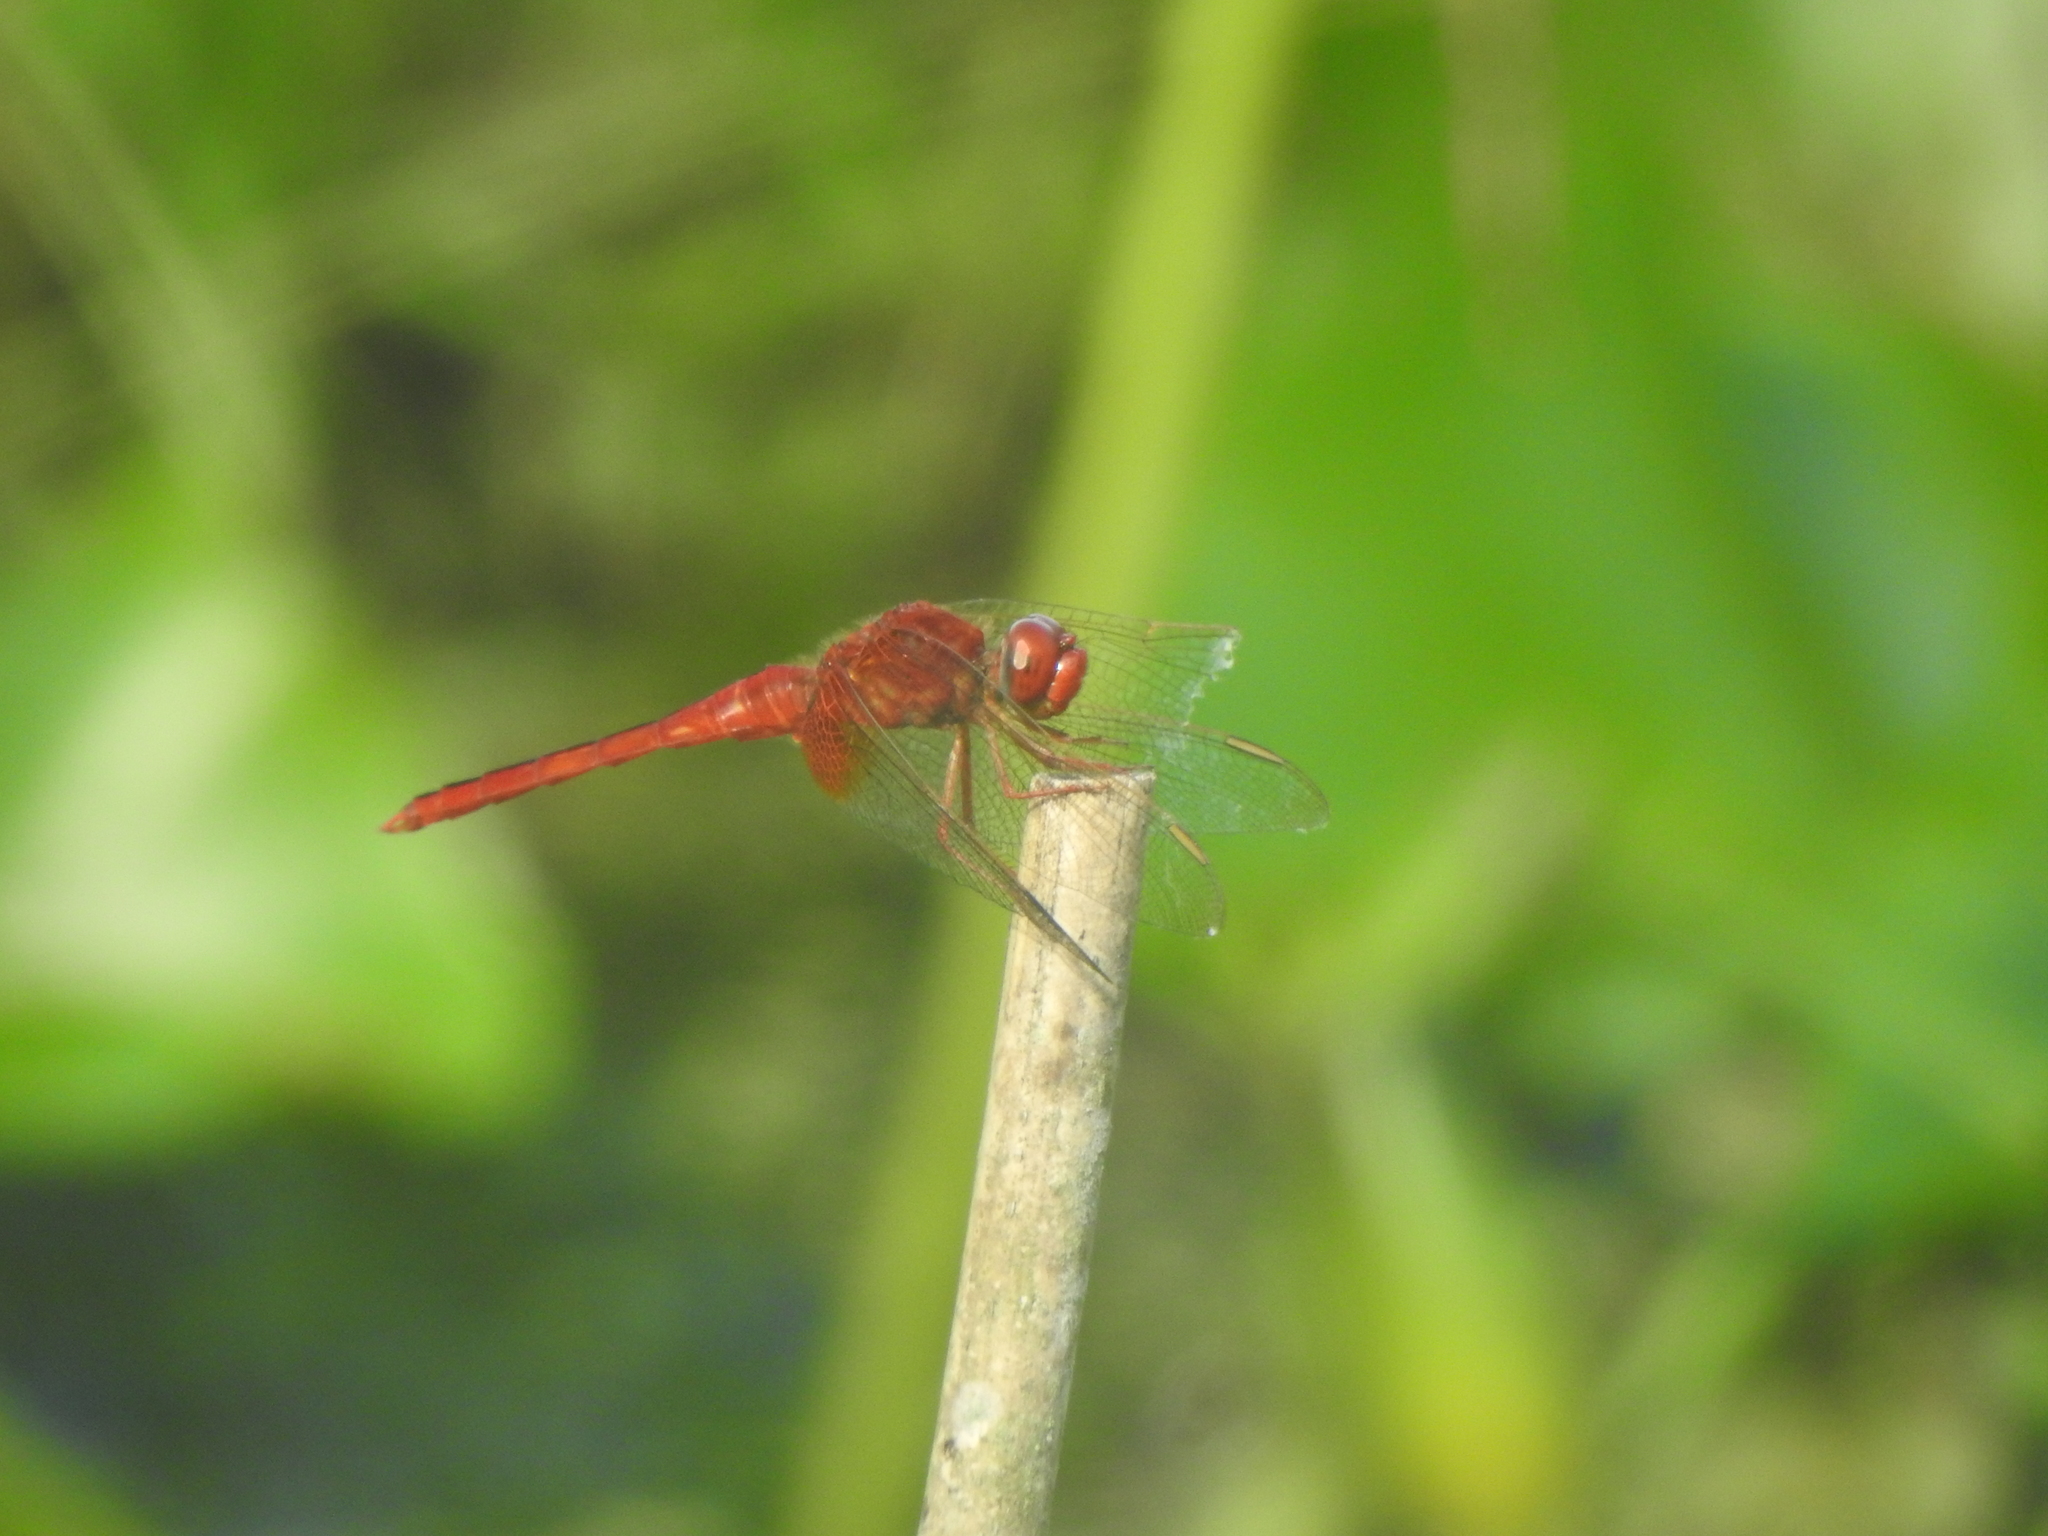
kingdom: Animalia
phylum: Arthropoda
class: Insecta
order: Odonata
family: Libellulidae
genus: Crocothemis
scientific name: Crocothemis servilia
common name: Scarlet skimmer
